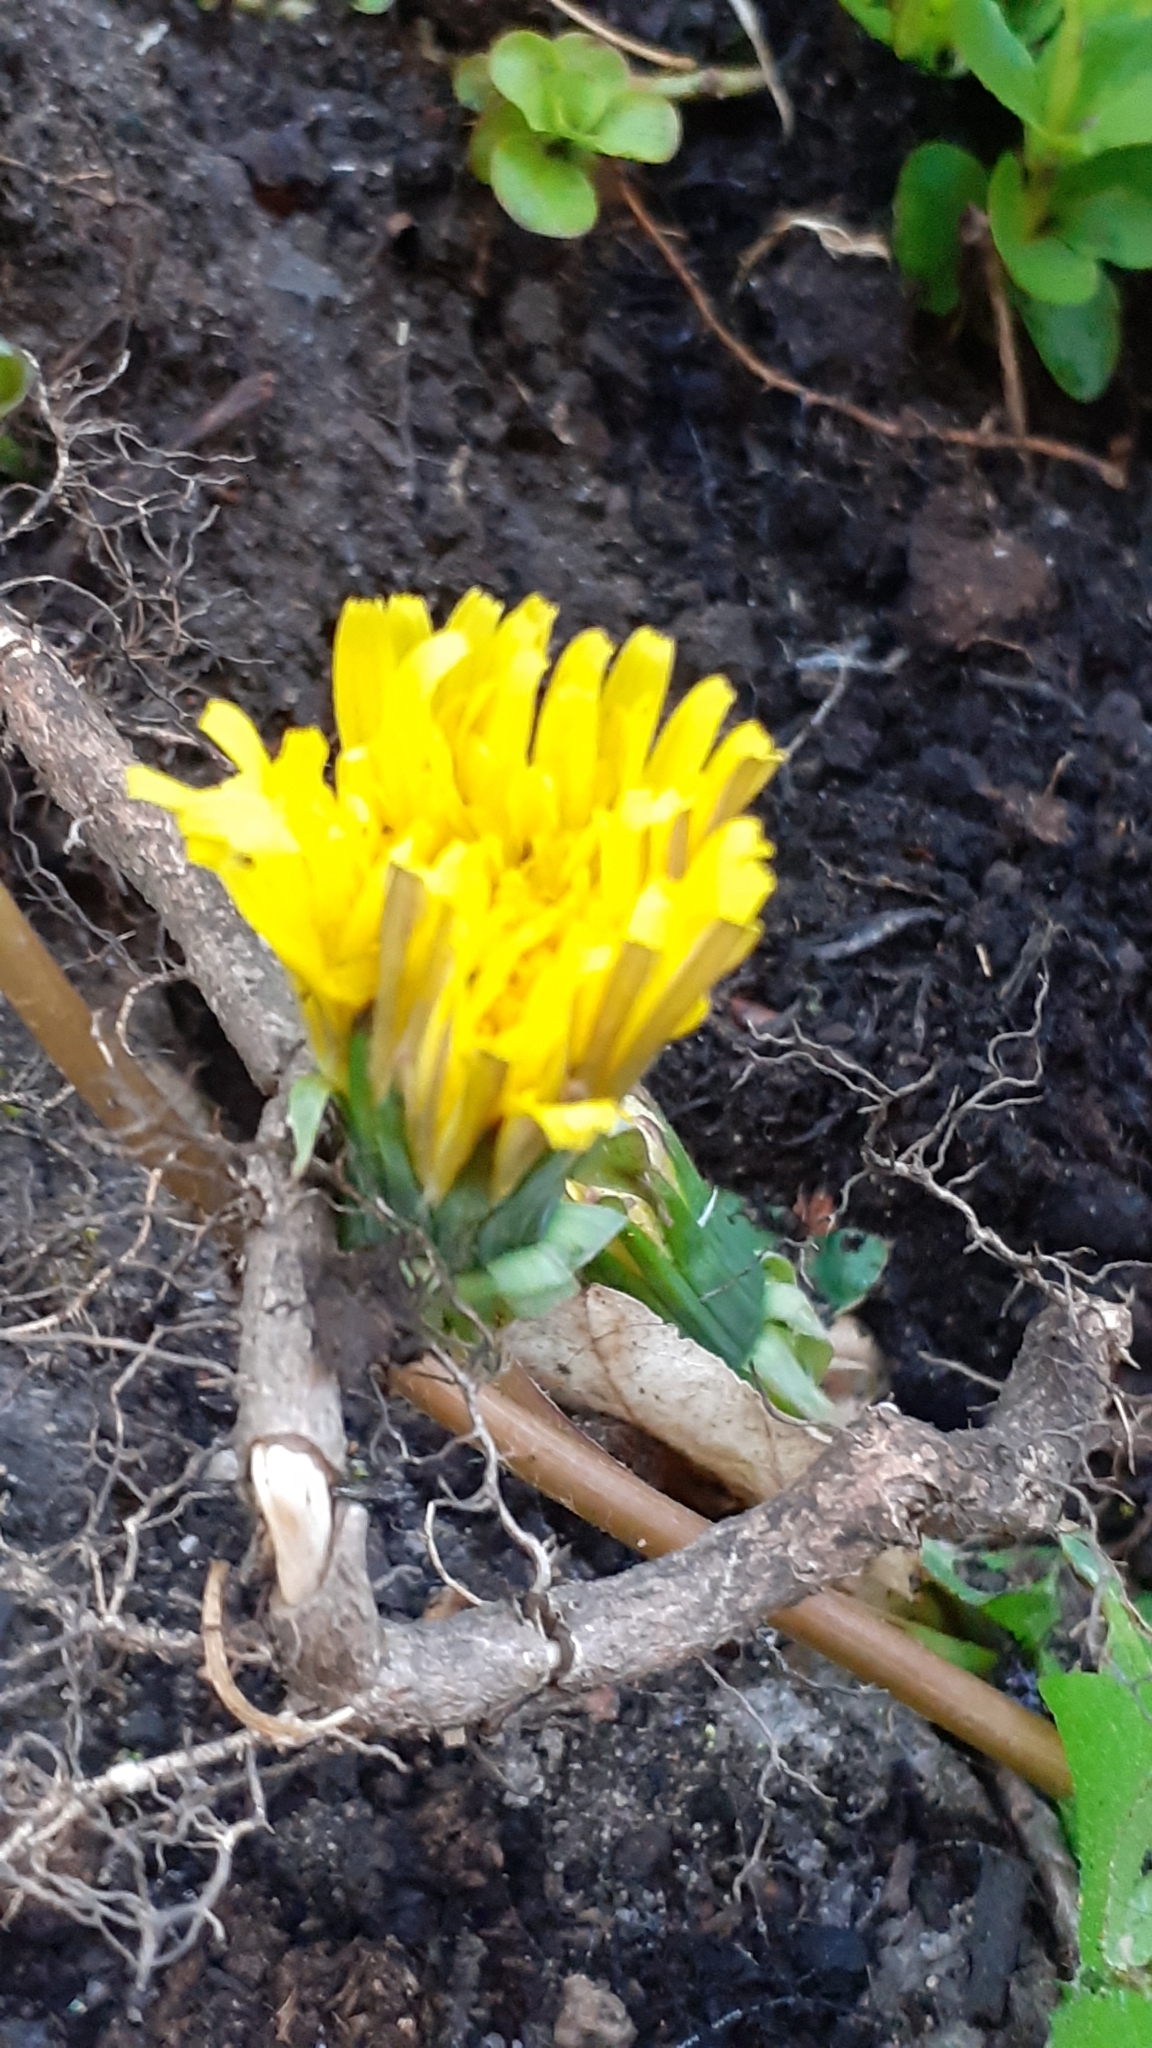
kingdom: Plantae
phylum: Tracheophyta
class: Magnoliopsida
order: Asterales
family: Asteraceae
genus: Taraxacum
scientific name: Taraxacum officinale
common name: Common dandelion
